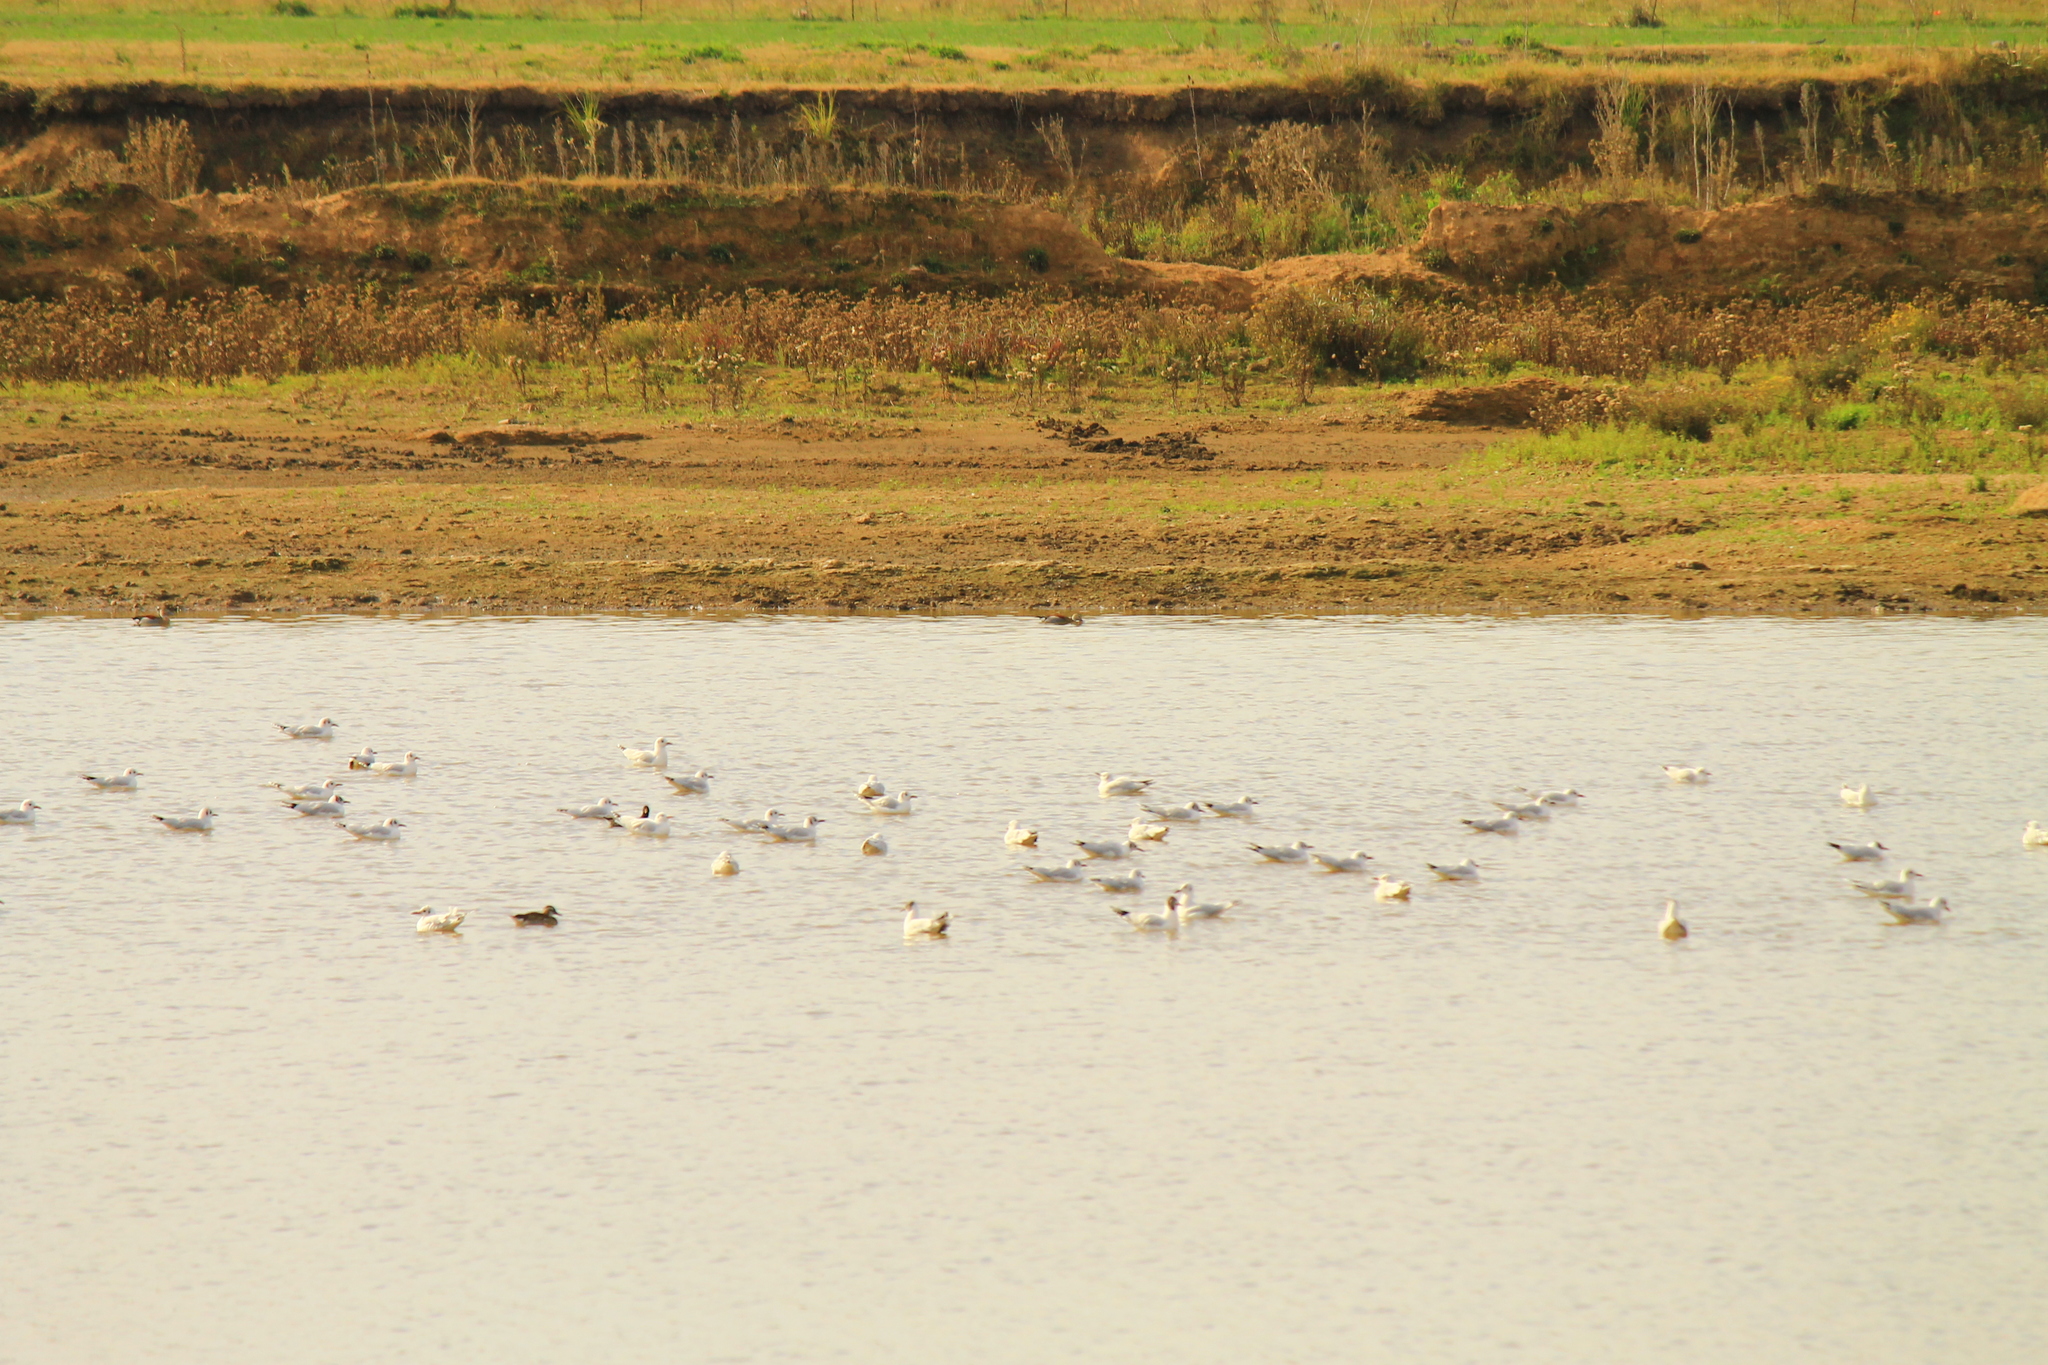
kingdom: Animalia
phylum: Chordata
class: Aves
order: Anseriformes
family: Anatidae
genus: Callonetta
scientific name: Callonetta leucophrys
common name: Ringed teal
